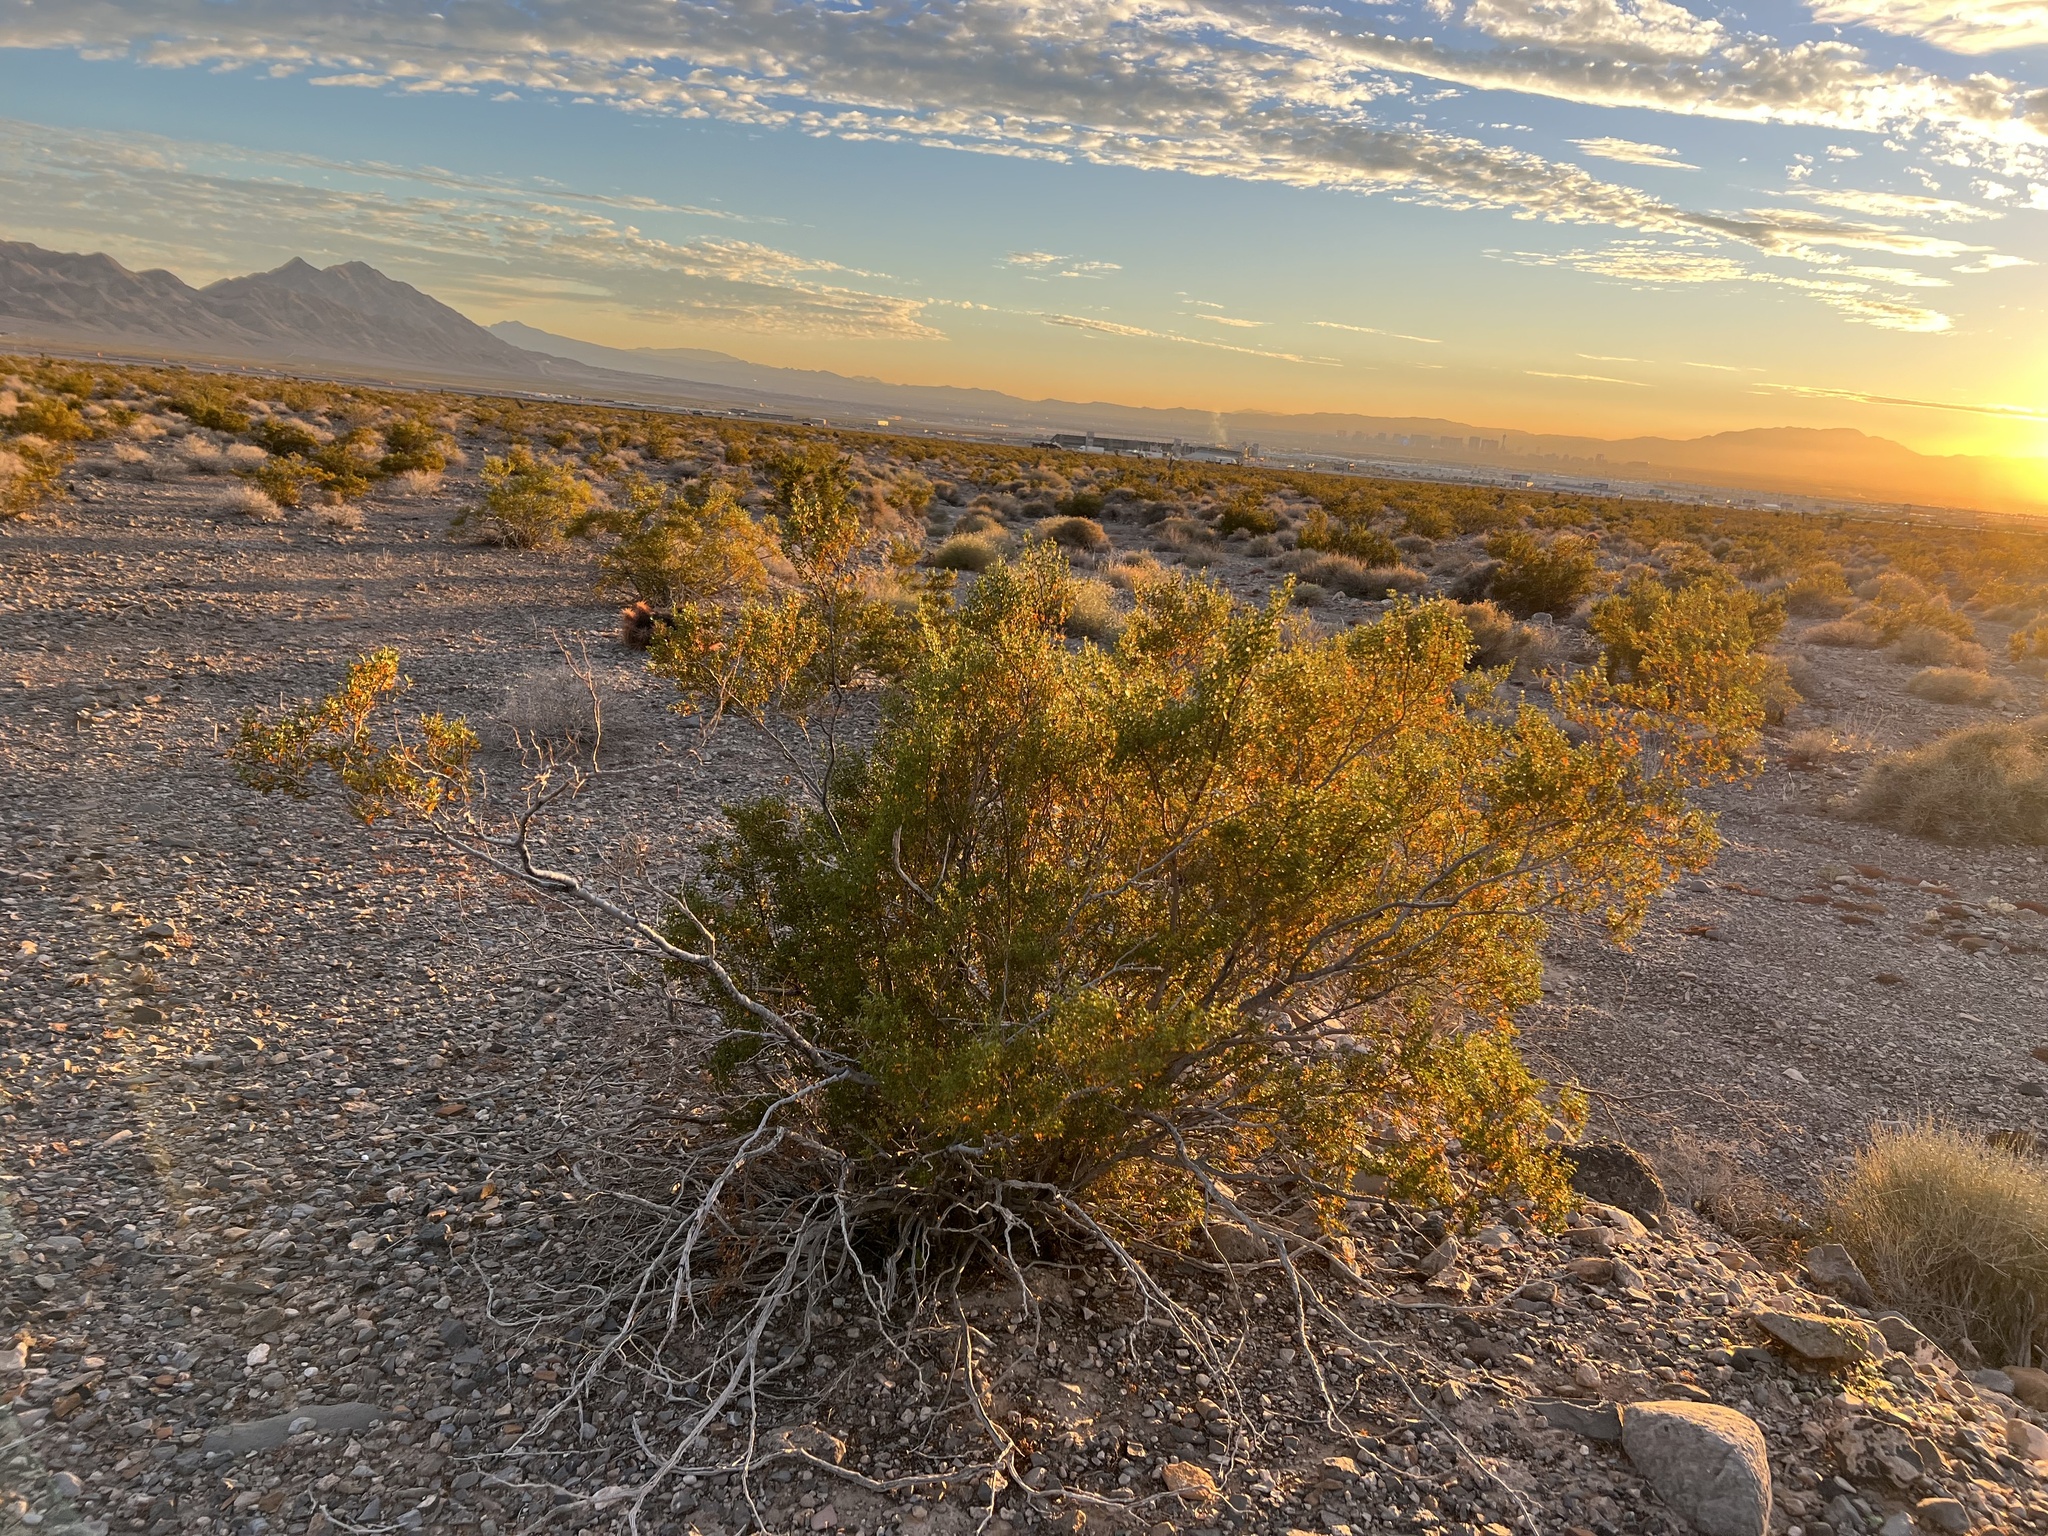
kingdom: Plantae
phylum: Tracheophyta
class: Magnoliopsida
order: Zygophyllales
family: Zygophyllaceae
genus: Larrea
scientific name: Larrea tridentata
